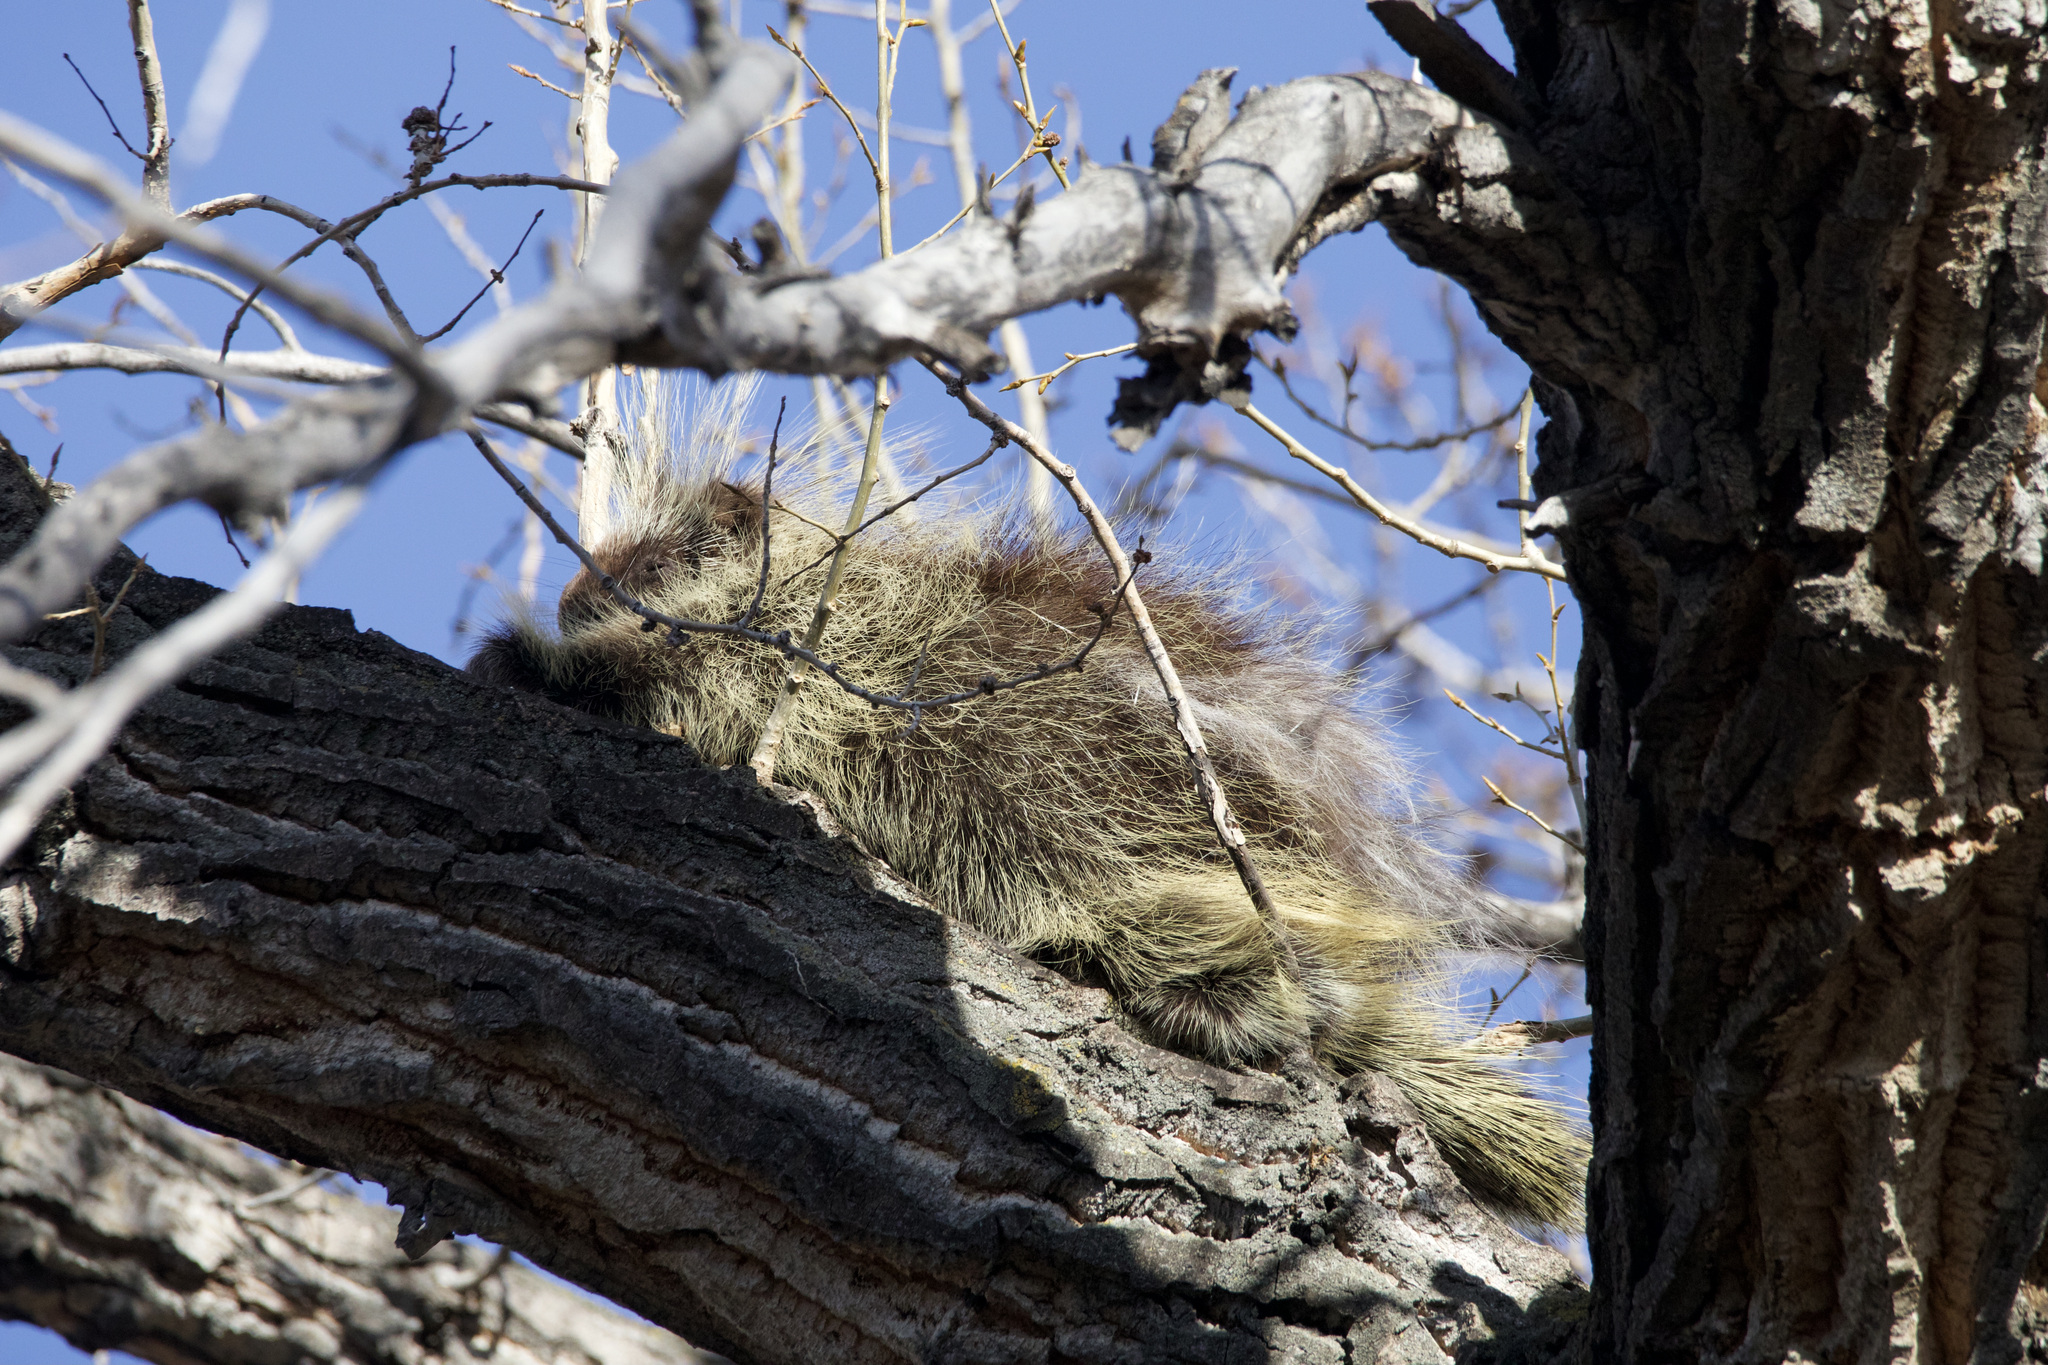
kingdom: Animalia
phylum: Chordata
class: Mammalia
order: Rodentia
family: Erethizontidae
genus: Erethizon
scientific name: Erethizon dorsatus
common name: North american porcupine
